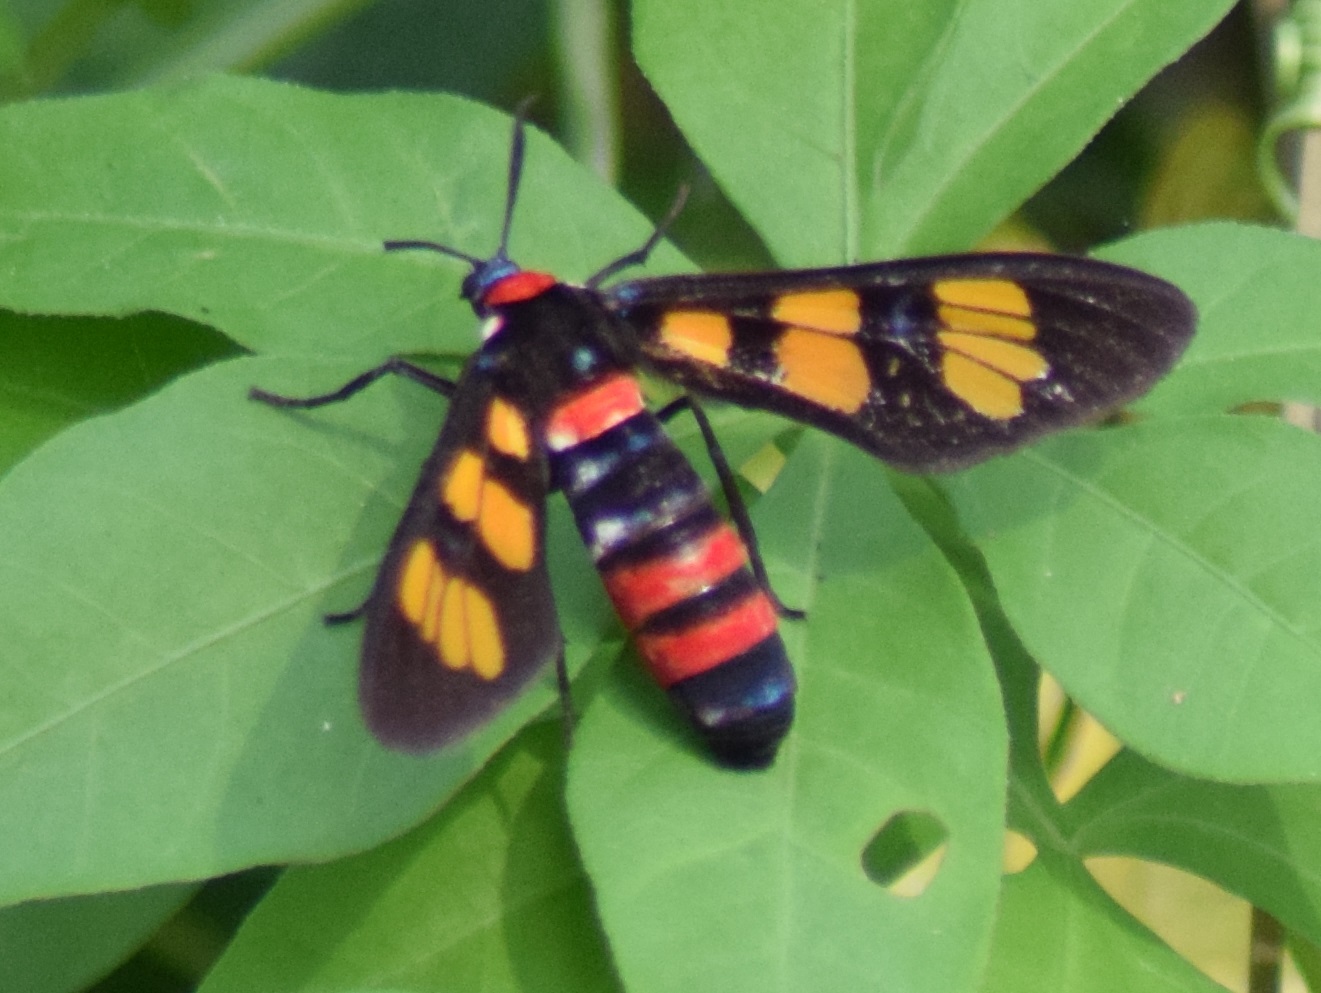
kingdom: Animalia
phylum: Arthropoda
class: Insecta
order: Lepidoptera
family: Erebidae
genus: Euchromia
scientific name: Euchromia polymena
